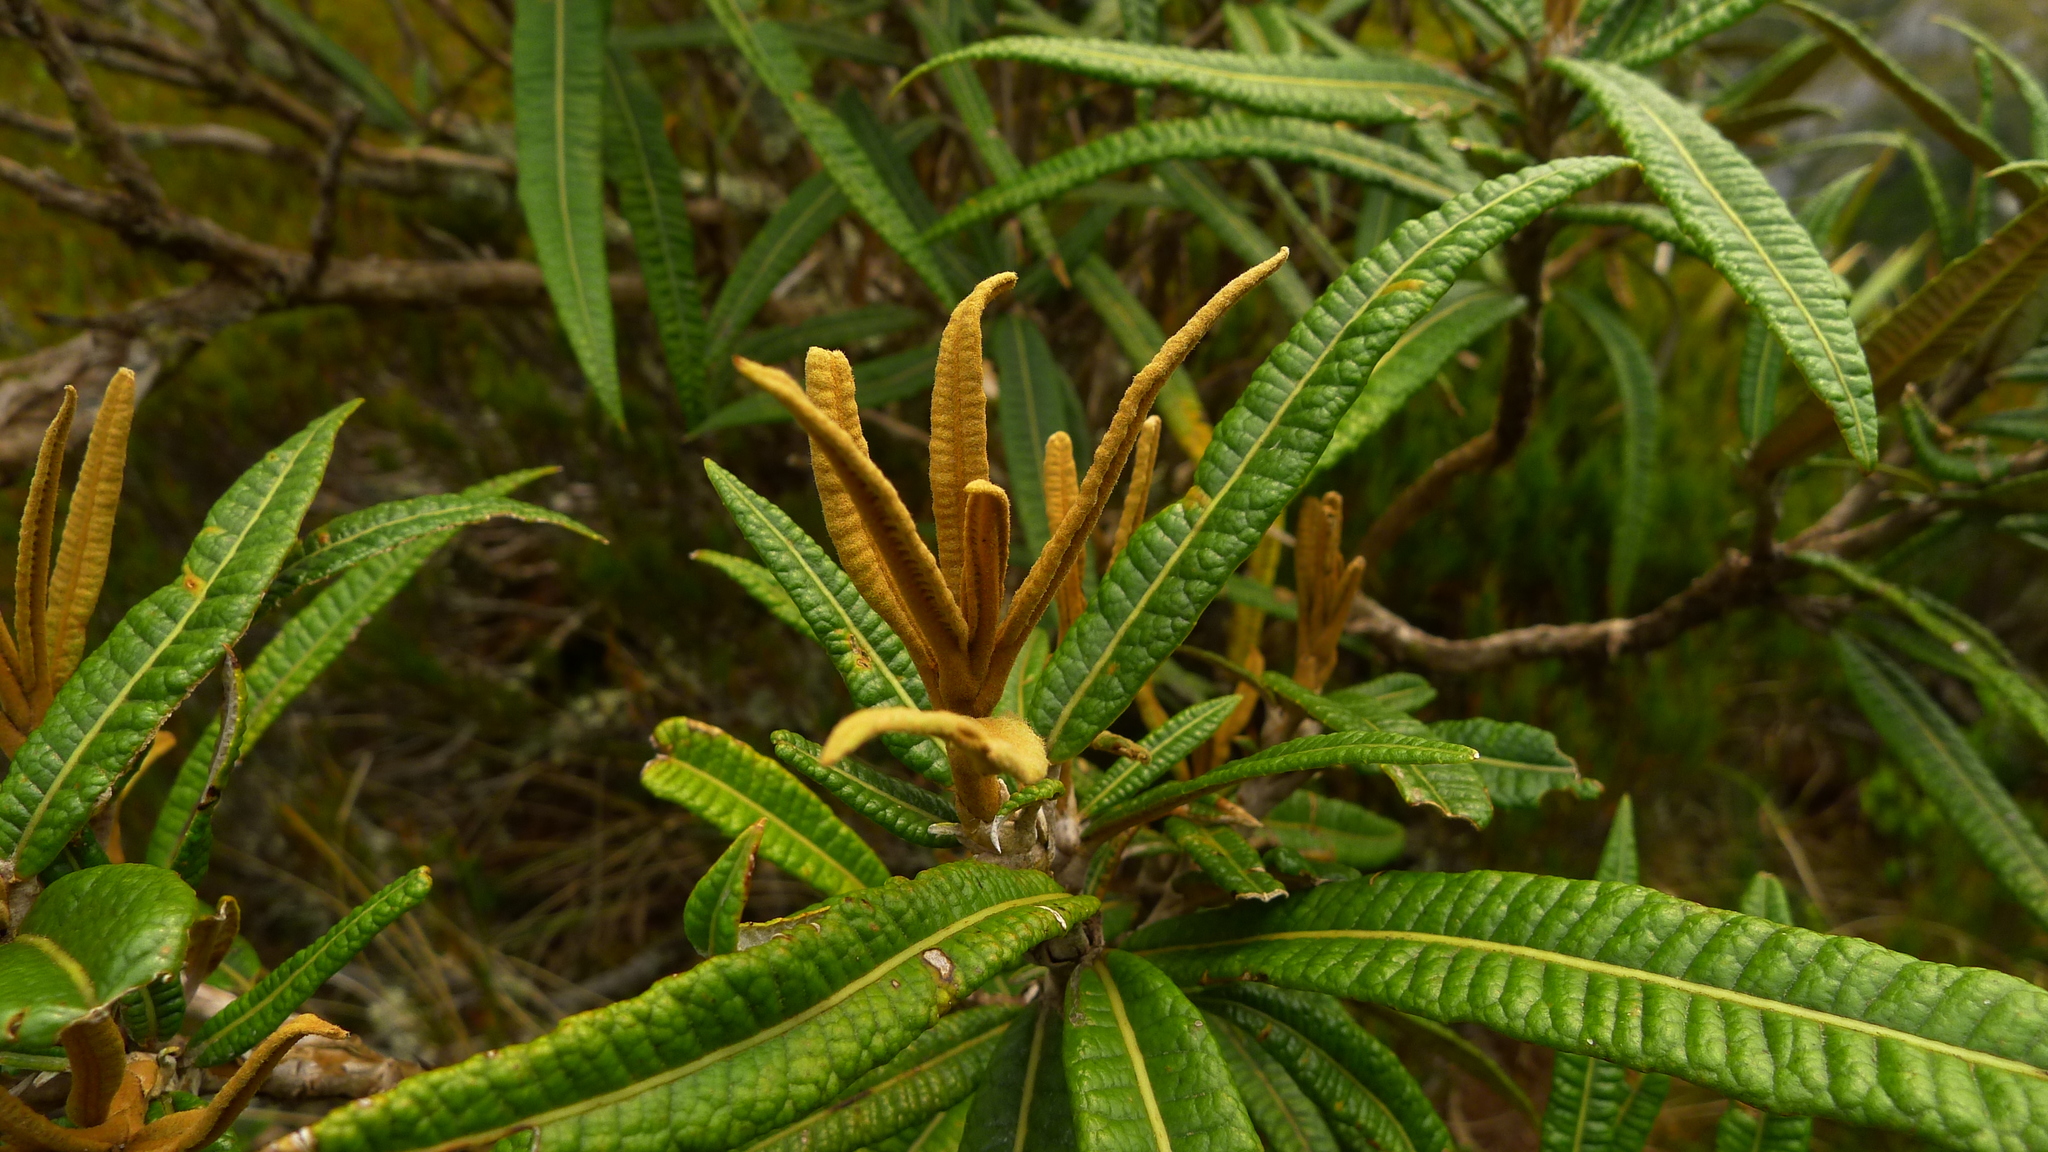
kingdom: Plantae
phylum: Tracheophyta
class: Magnoliopsida
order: Asterales
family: Asteraceae
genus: Olearia
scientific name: Olearia lacunosa
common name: Lancewood tree daisy
